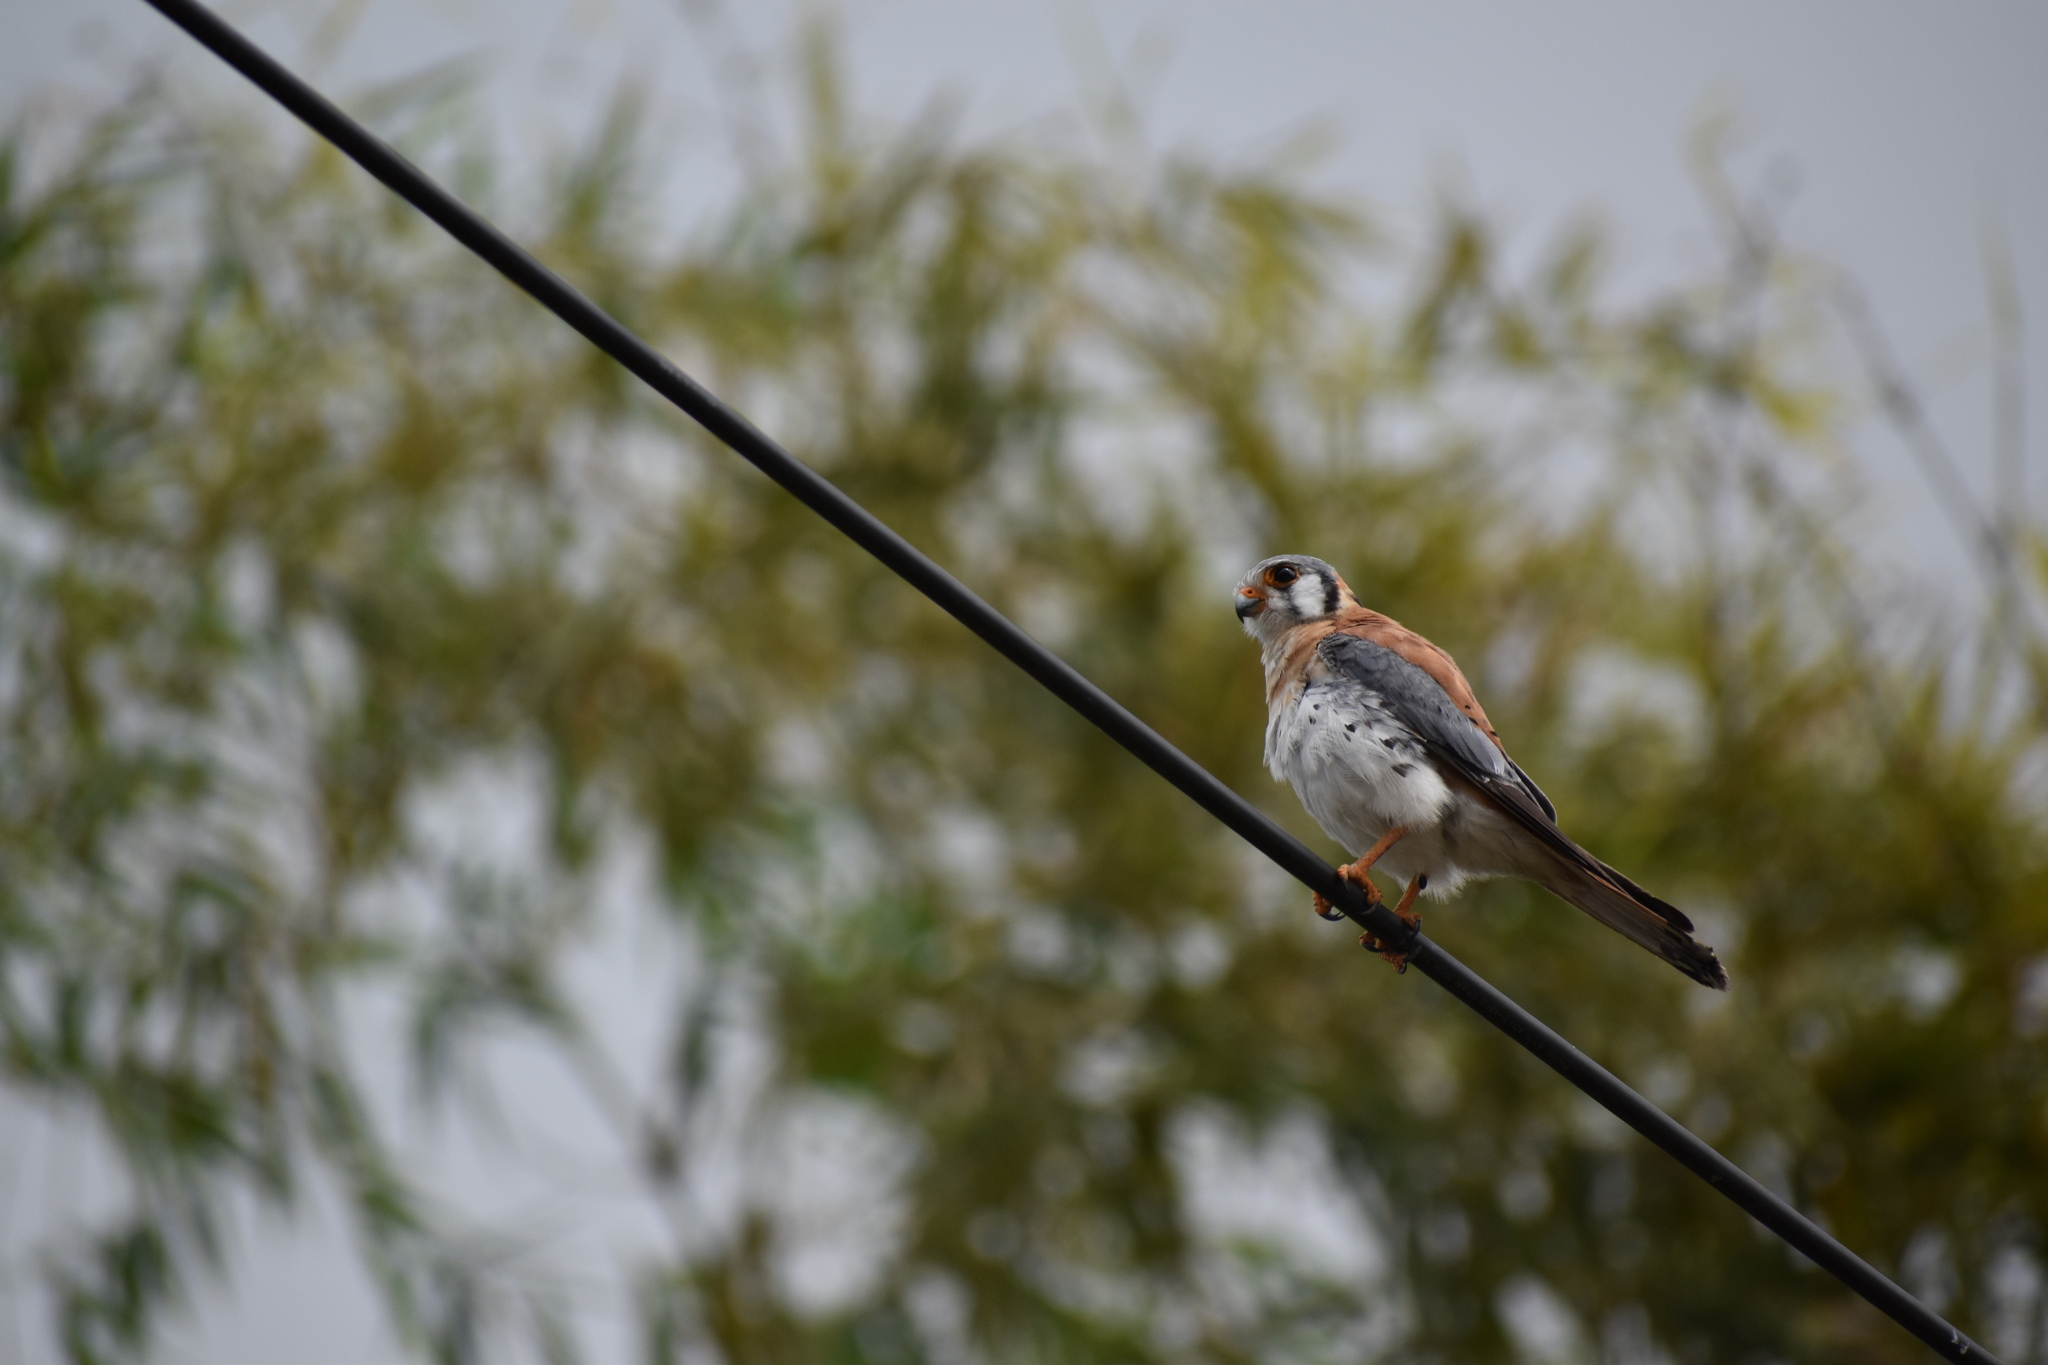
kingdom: Animalia
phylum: Chordata
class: Aves
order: Falconiformes
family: Falconidae
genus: Falco
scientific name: Falco sparverius
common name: American kestrel
